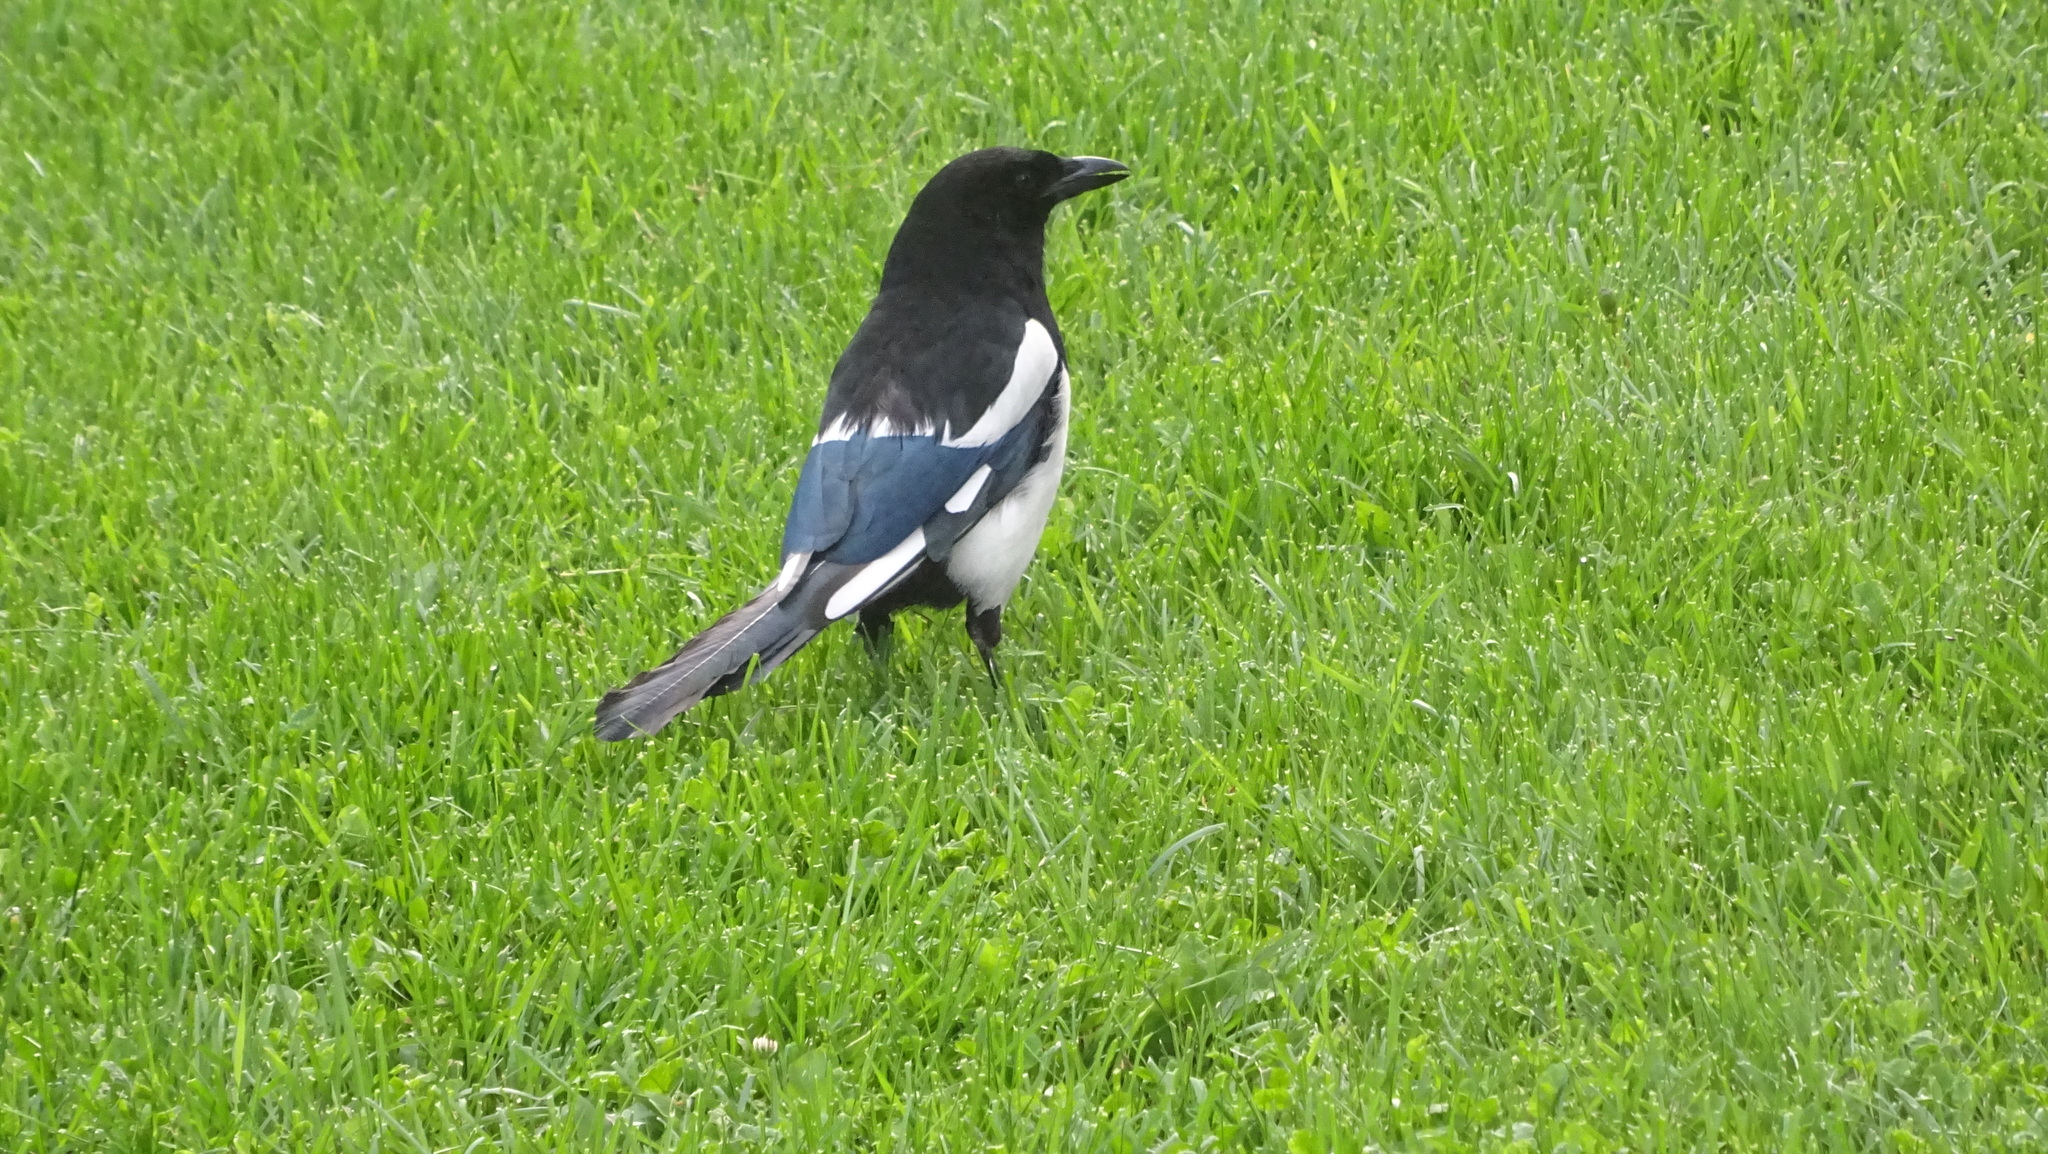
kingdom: Animalia
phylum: Chordata
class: Aves
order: Passeriformes
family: Corvidae
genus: Pica
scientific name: Pica hudsonia
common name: Black-billed magpie
